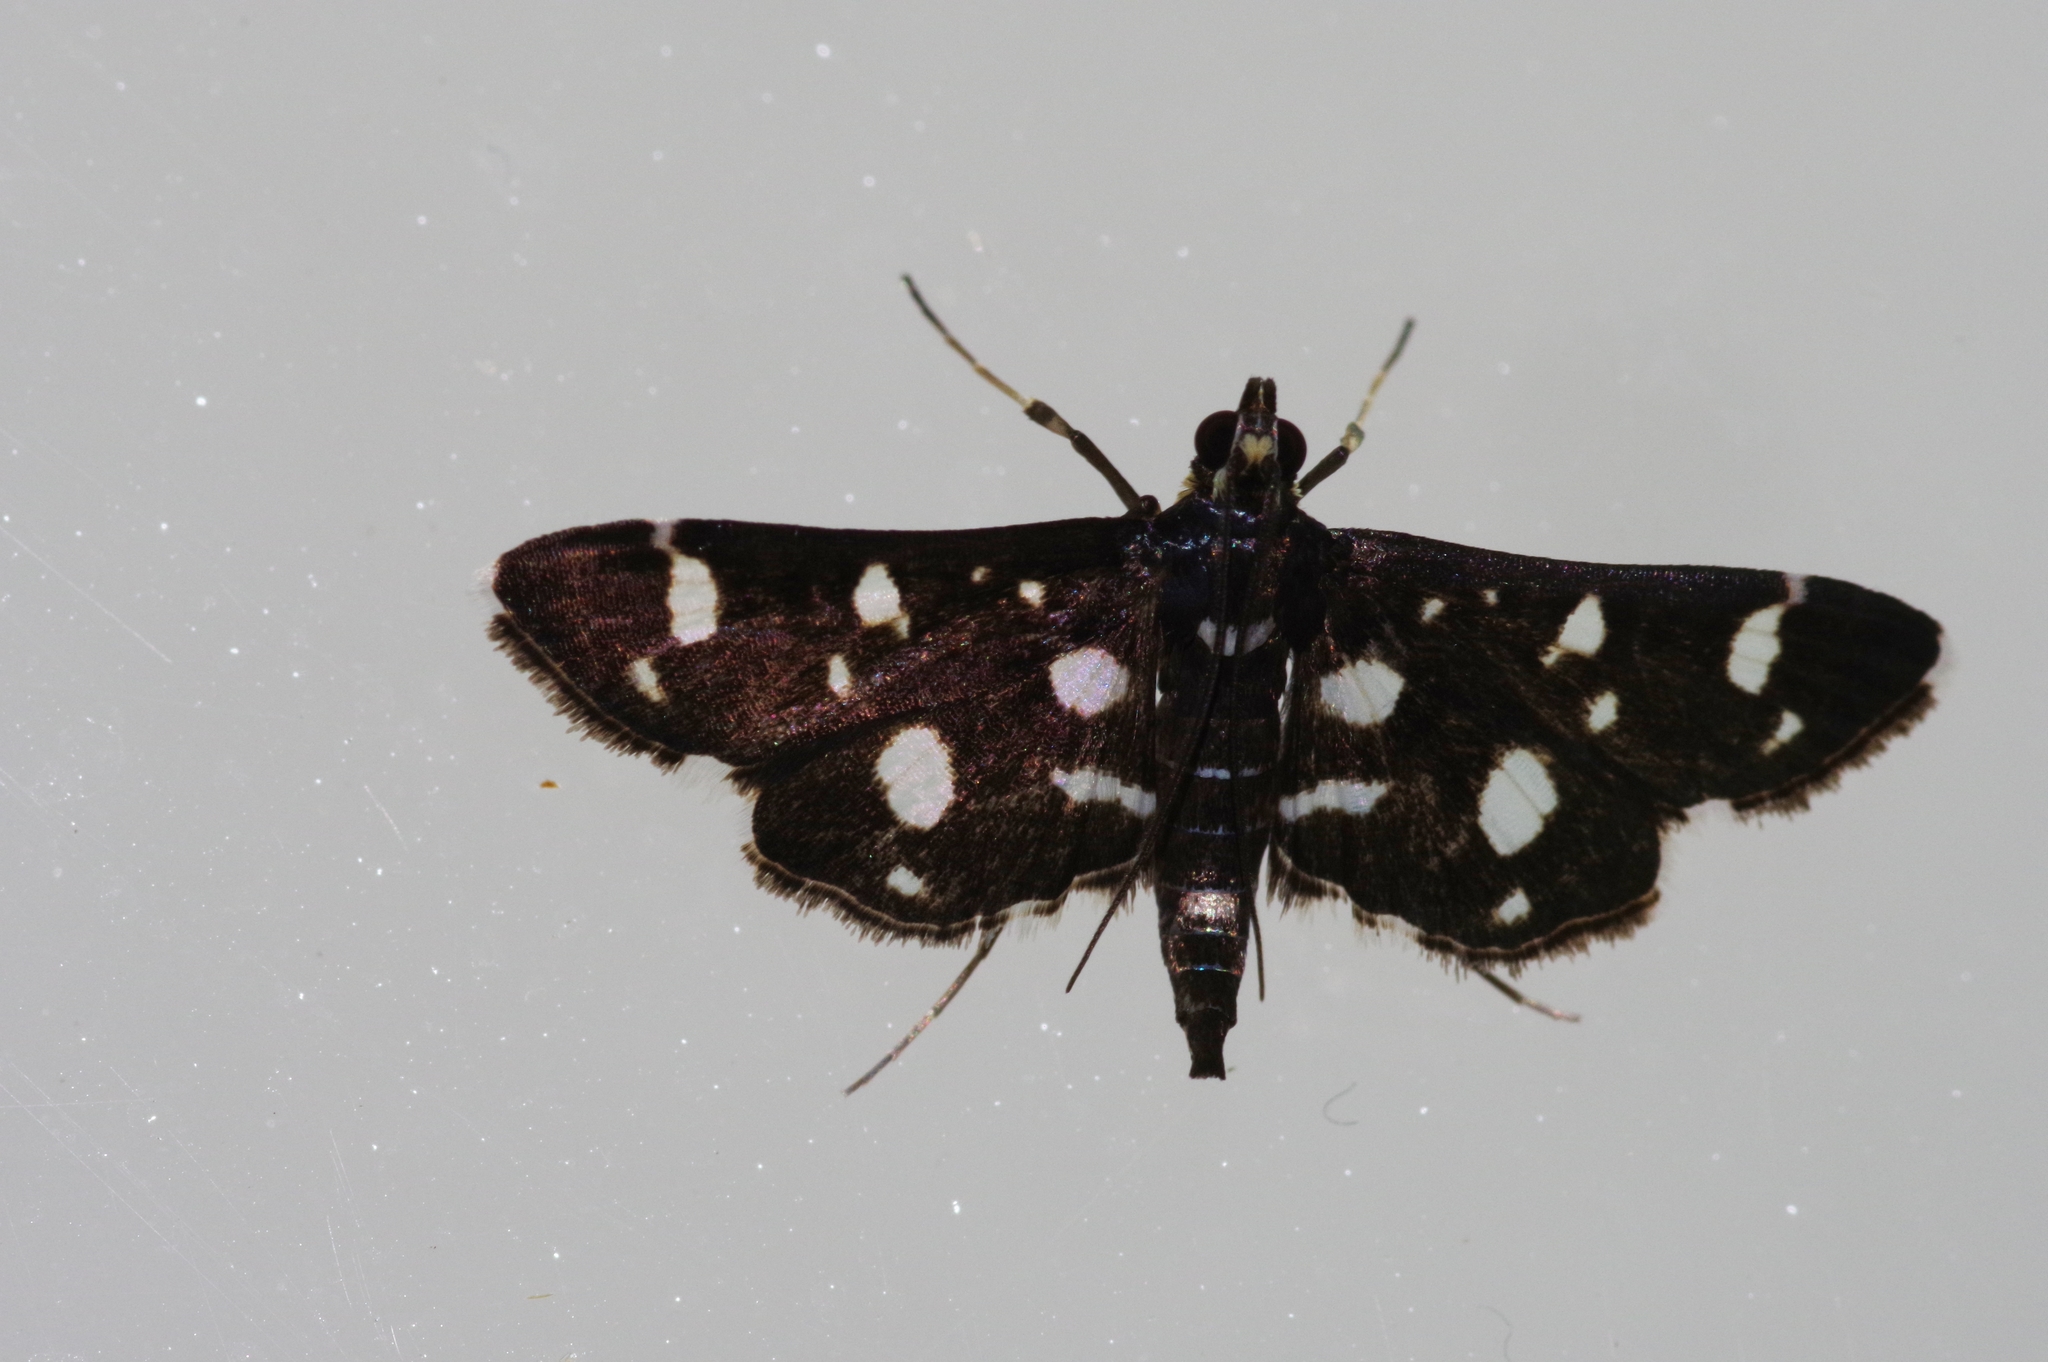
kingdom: Animalia
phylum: Arthropoda
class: Insecta
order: Lepidoptera
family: Crambidae
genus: Bocchoris
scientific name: Bocchoris inspersalis
